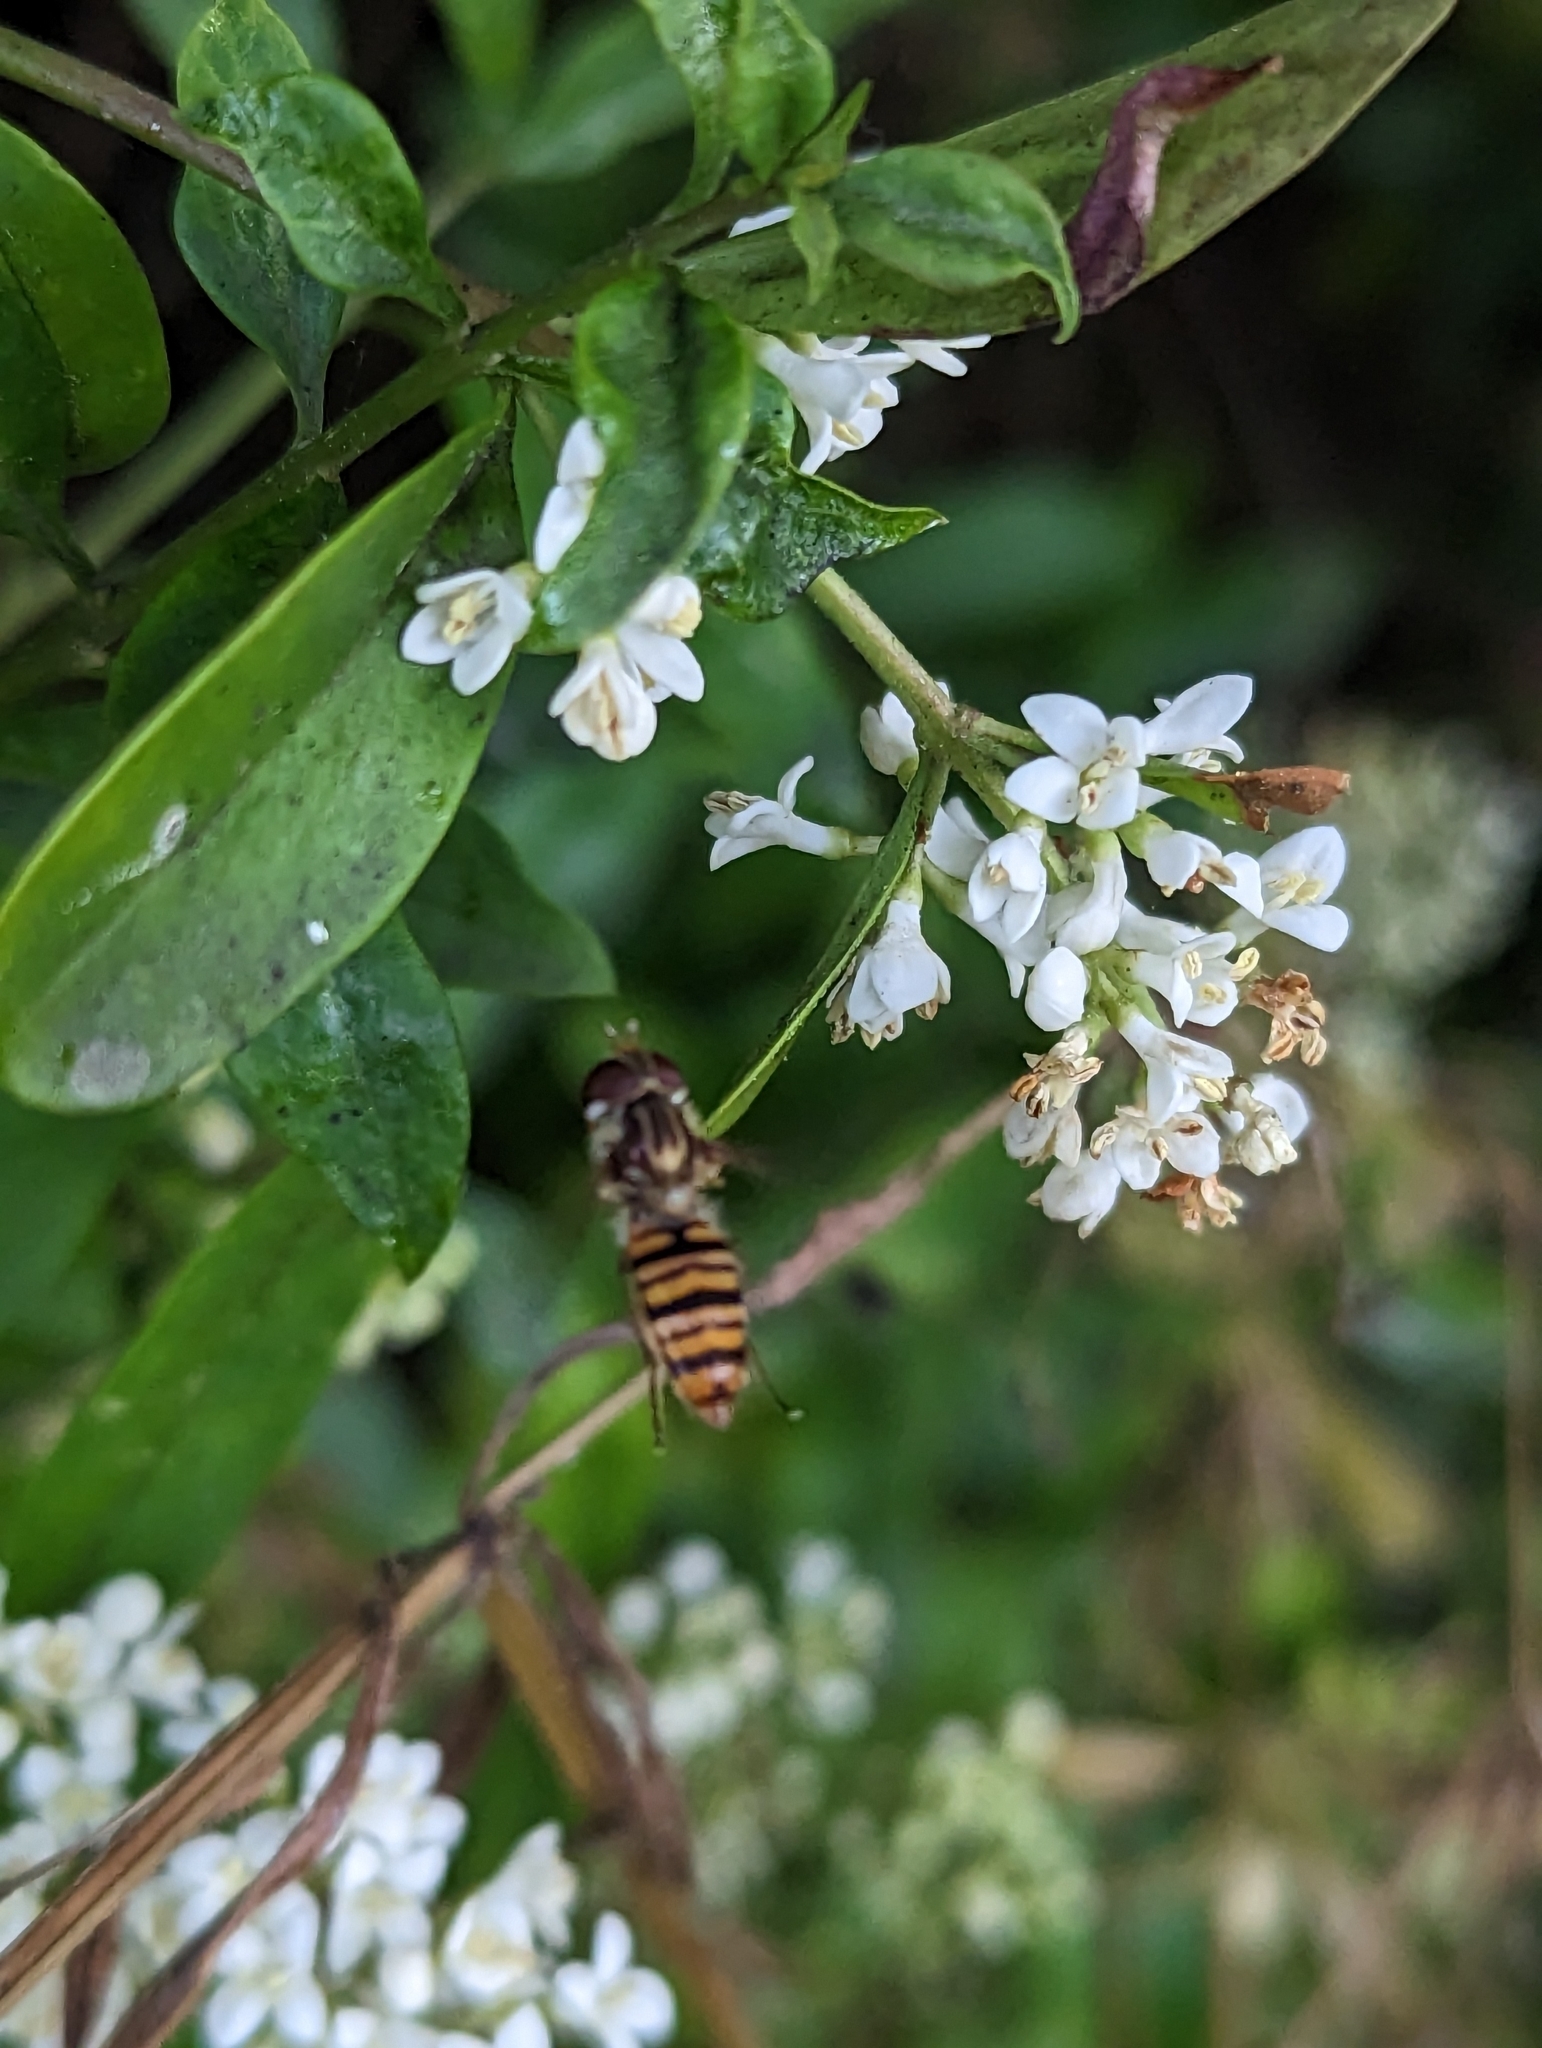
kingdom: Animalia
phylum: Arthropoda
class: Insecta
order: Diptera
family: Syrphidae
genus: Episyrphus
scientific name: Episyrphus balteatus
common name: Marmalade hoverfly
